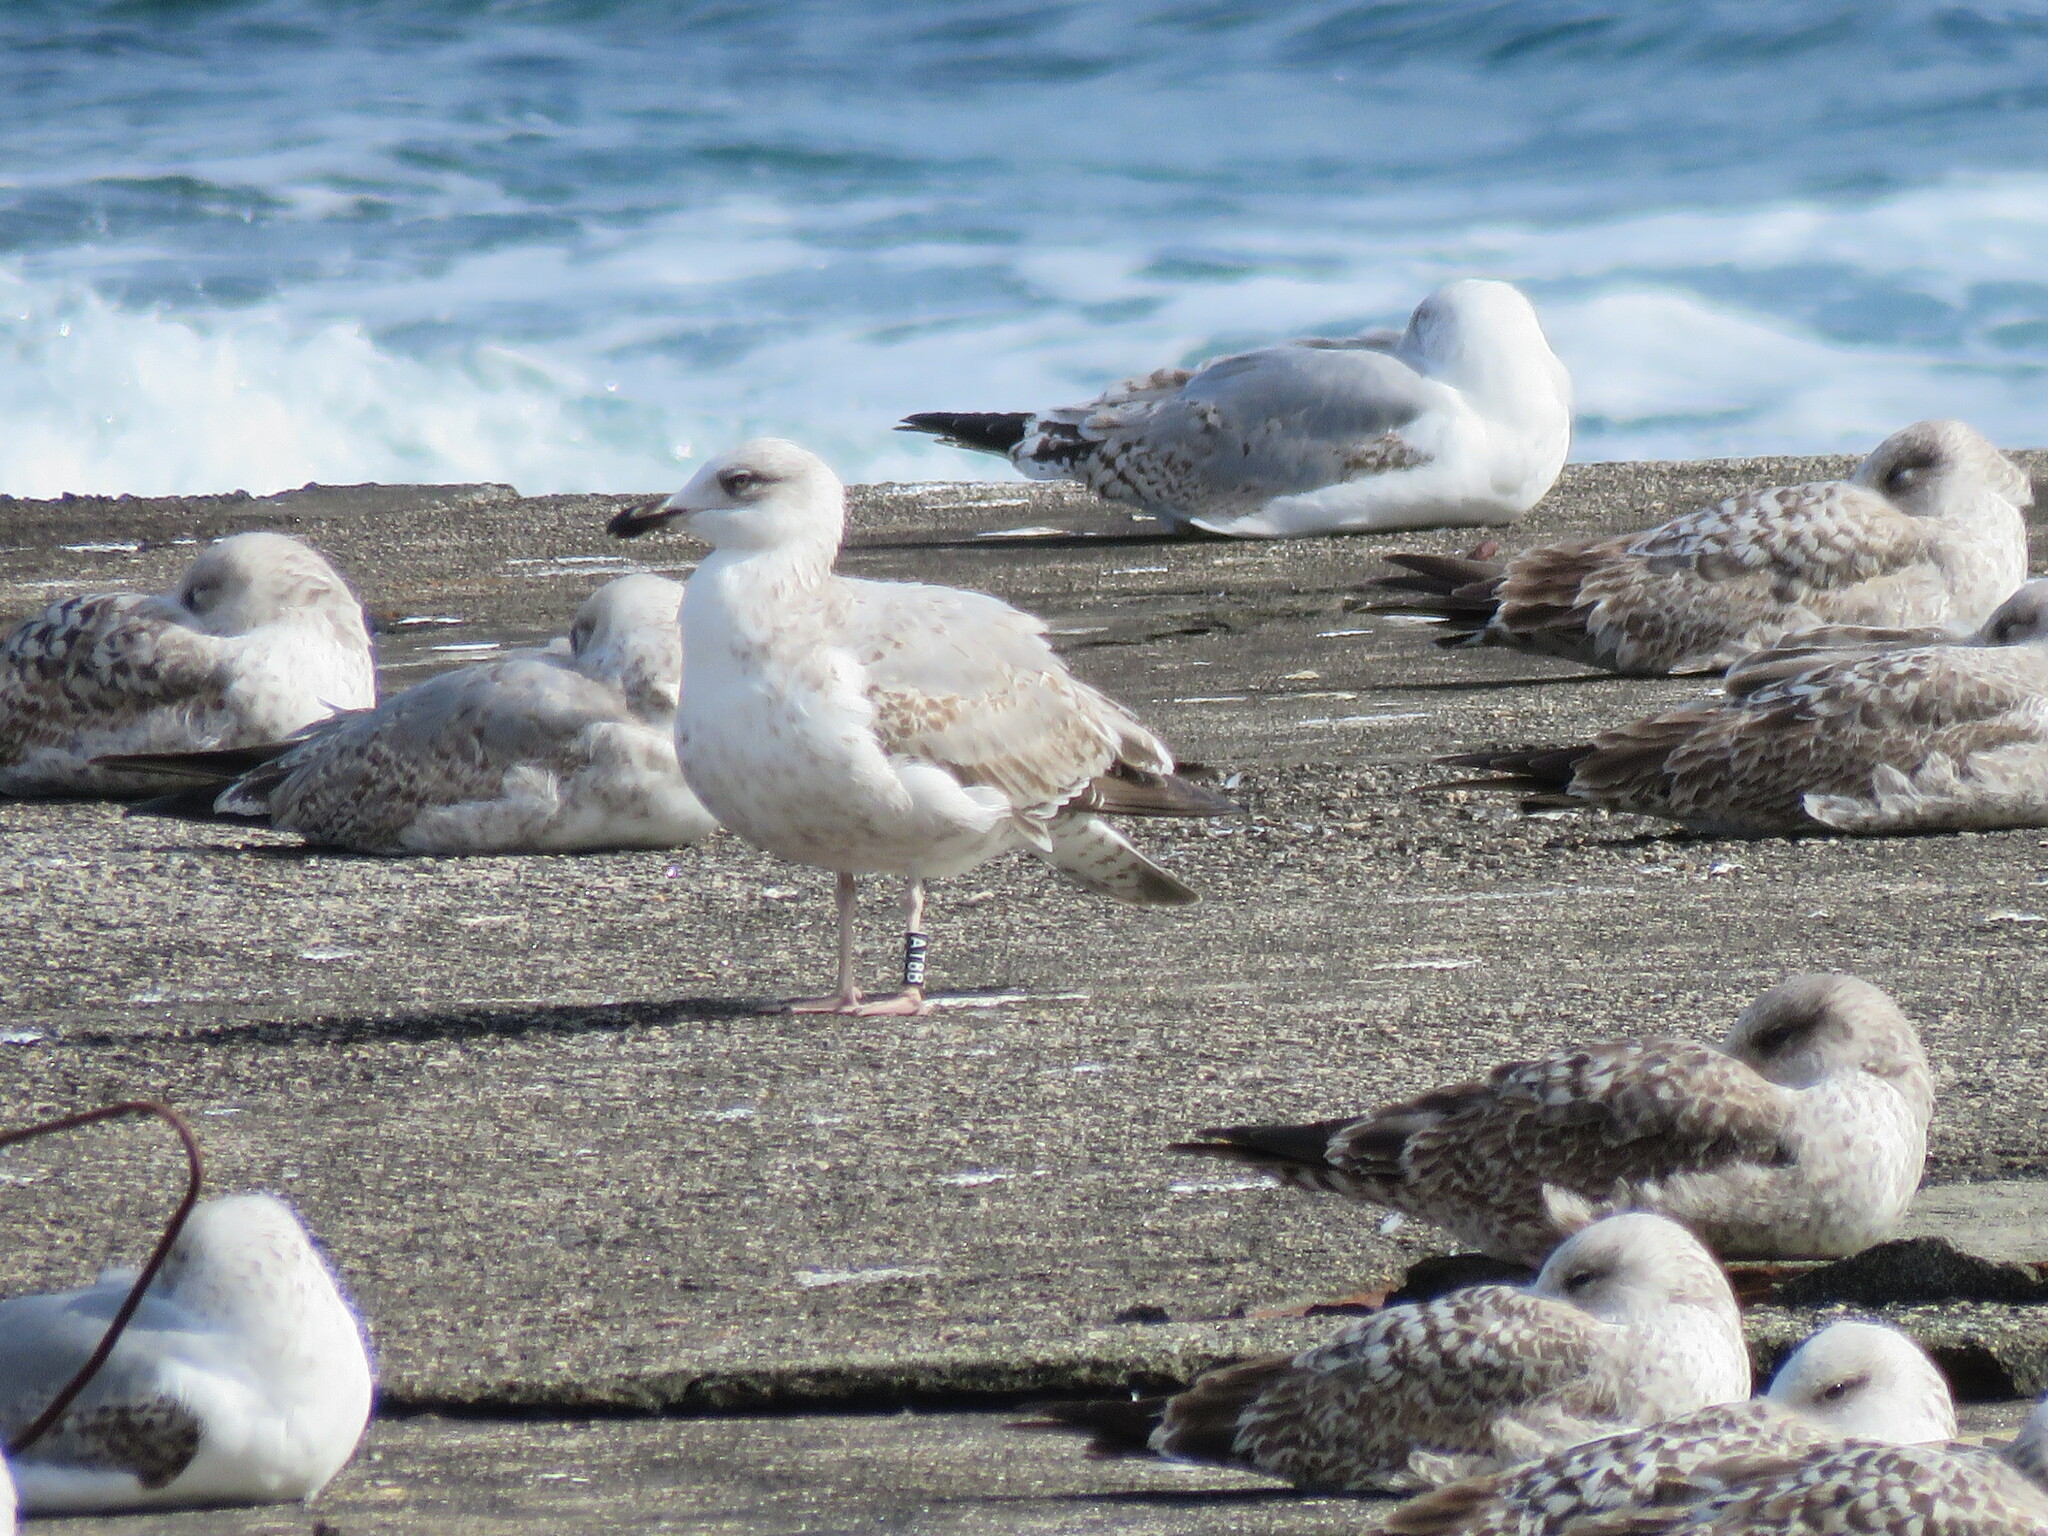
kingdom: Animalia
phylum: Chordata
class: Aves
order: Charadriiformes
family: Laridae
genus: Larus
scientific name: Larus michahellis
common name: Yellow-legged gull
